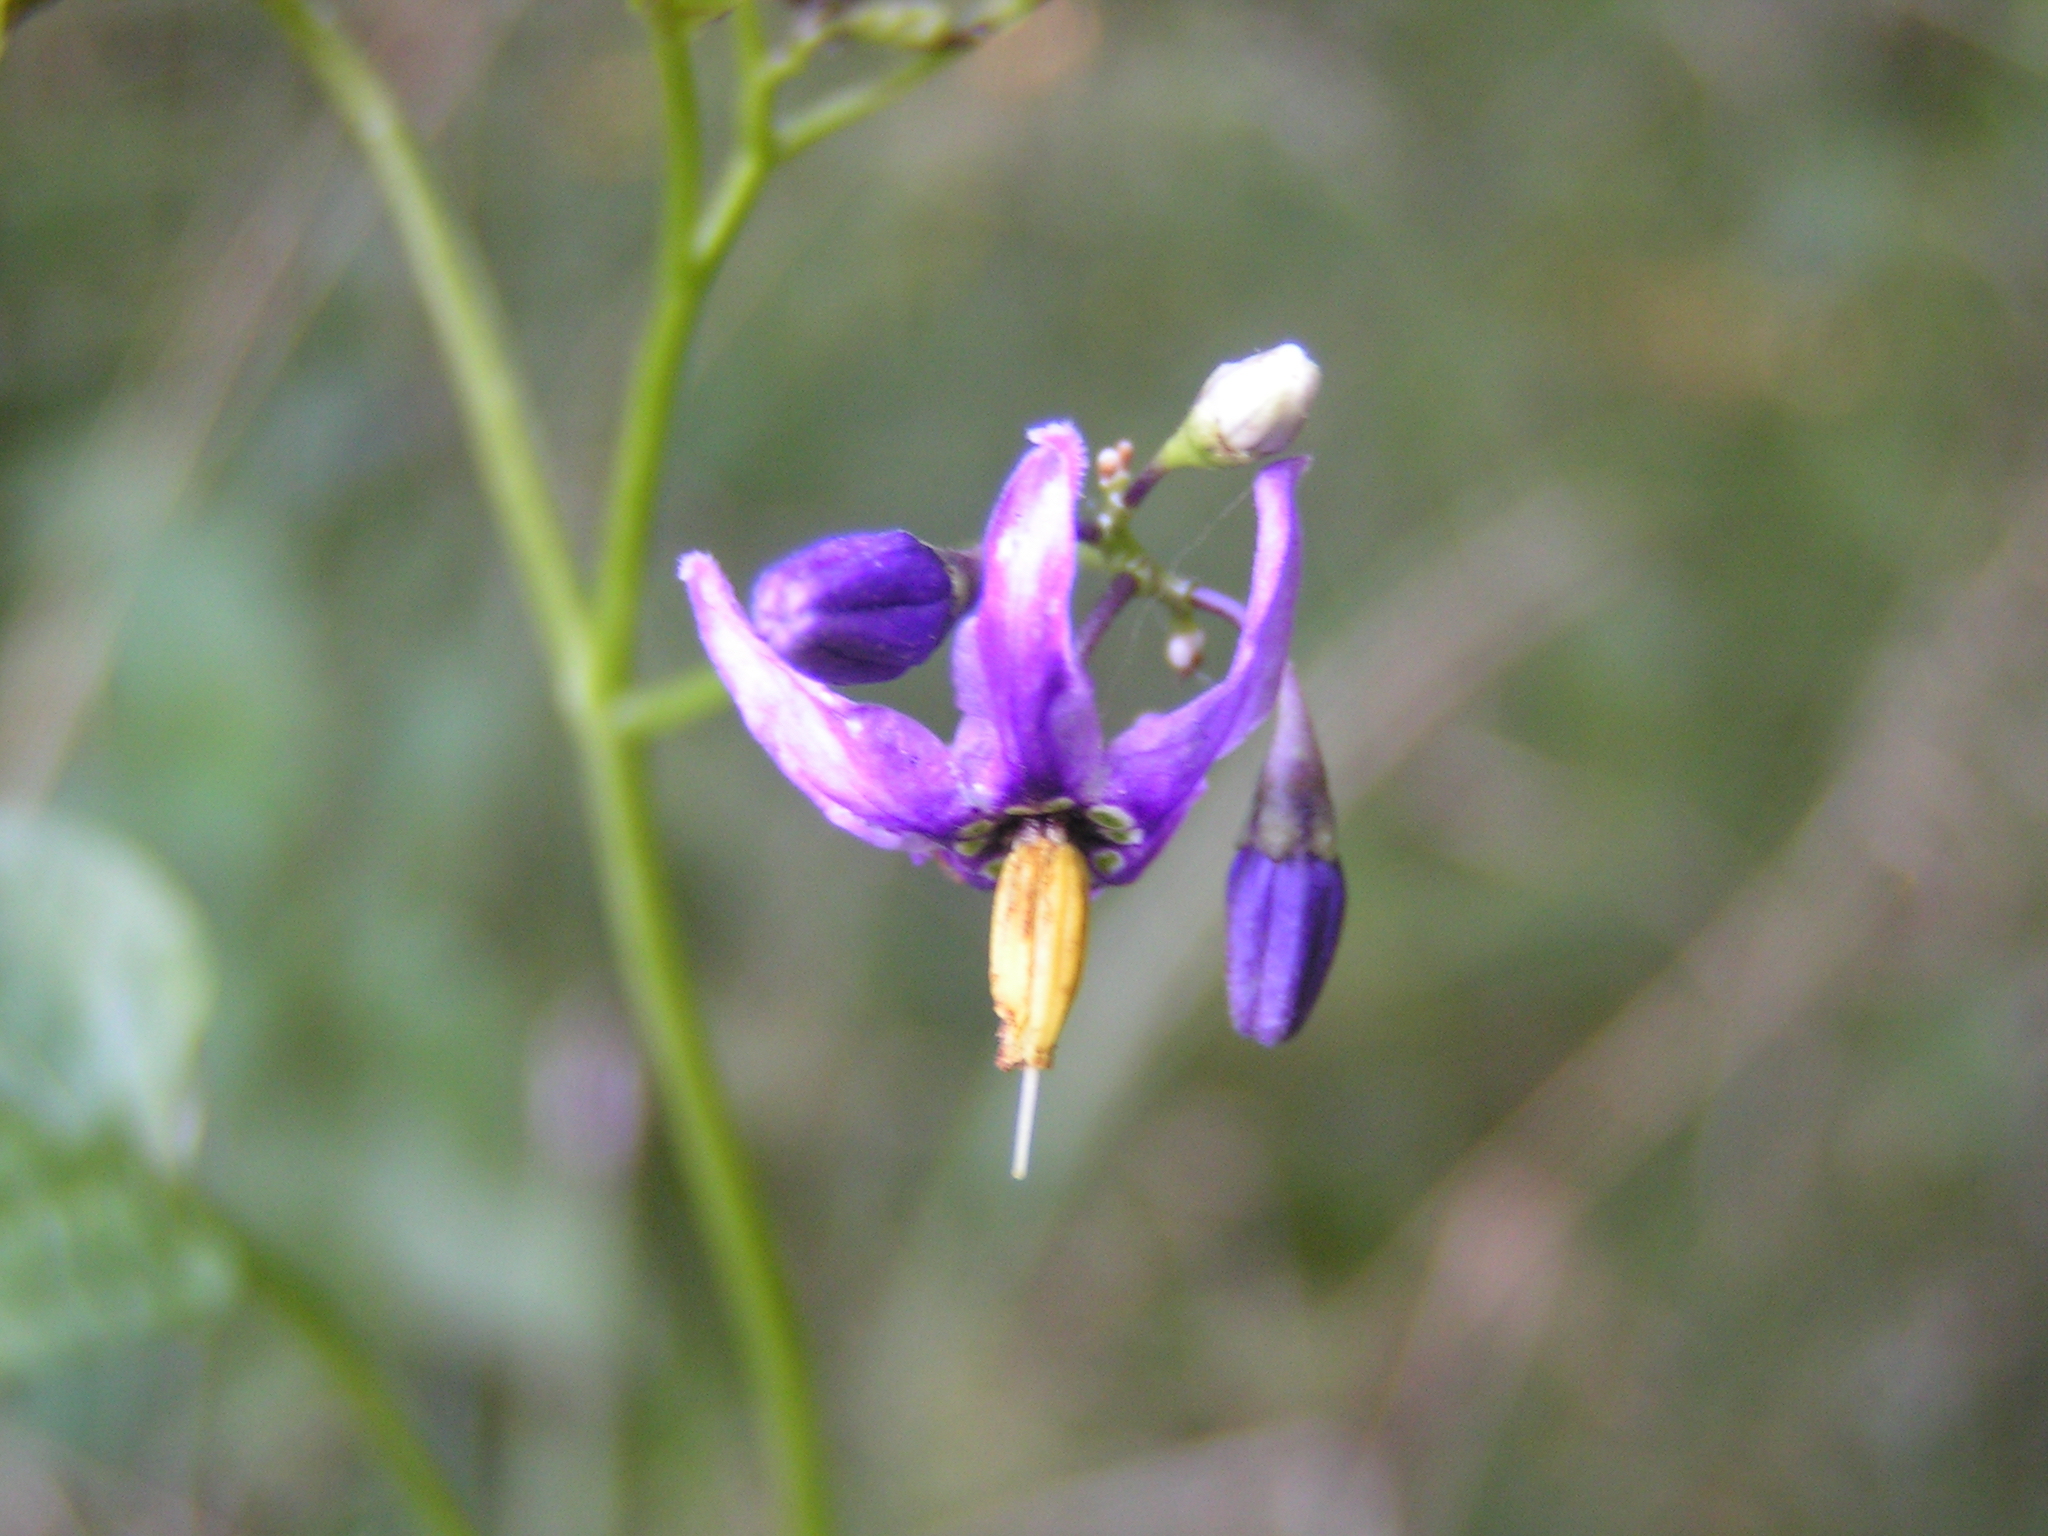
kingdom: Plantae
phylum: Tracheophyta
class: Magnoliopsida
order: Solanales
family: Solanaceae
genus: Solanum
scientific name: Solanum dulcamara
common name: Climbing nightshade
